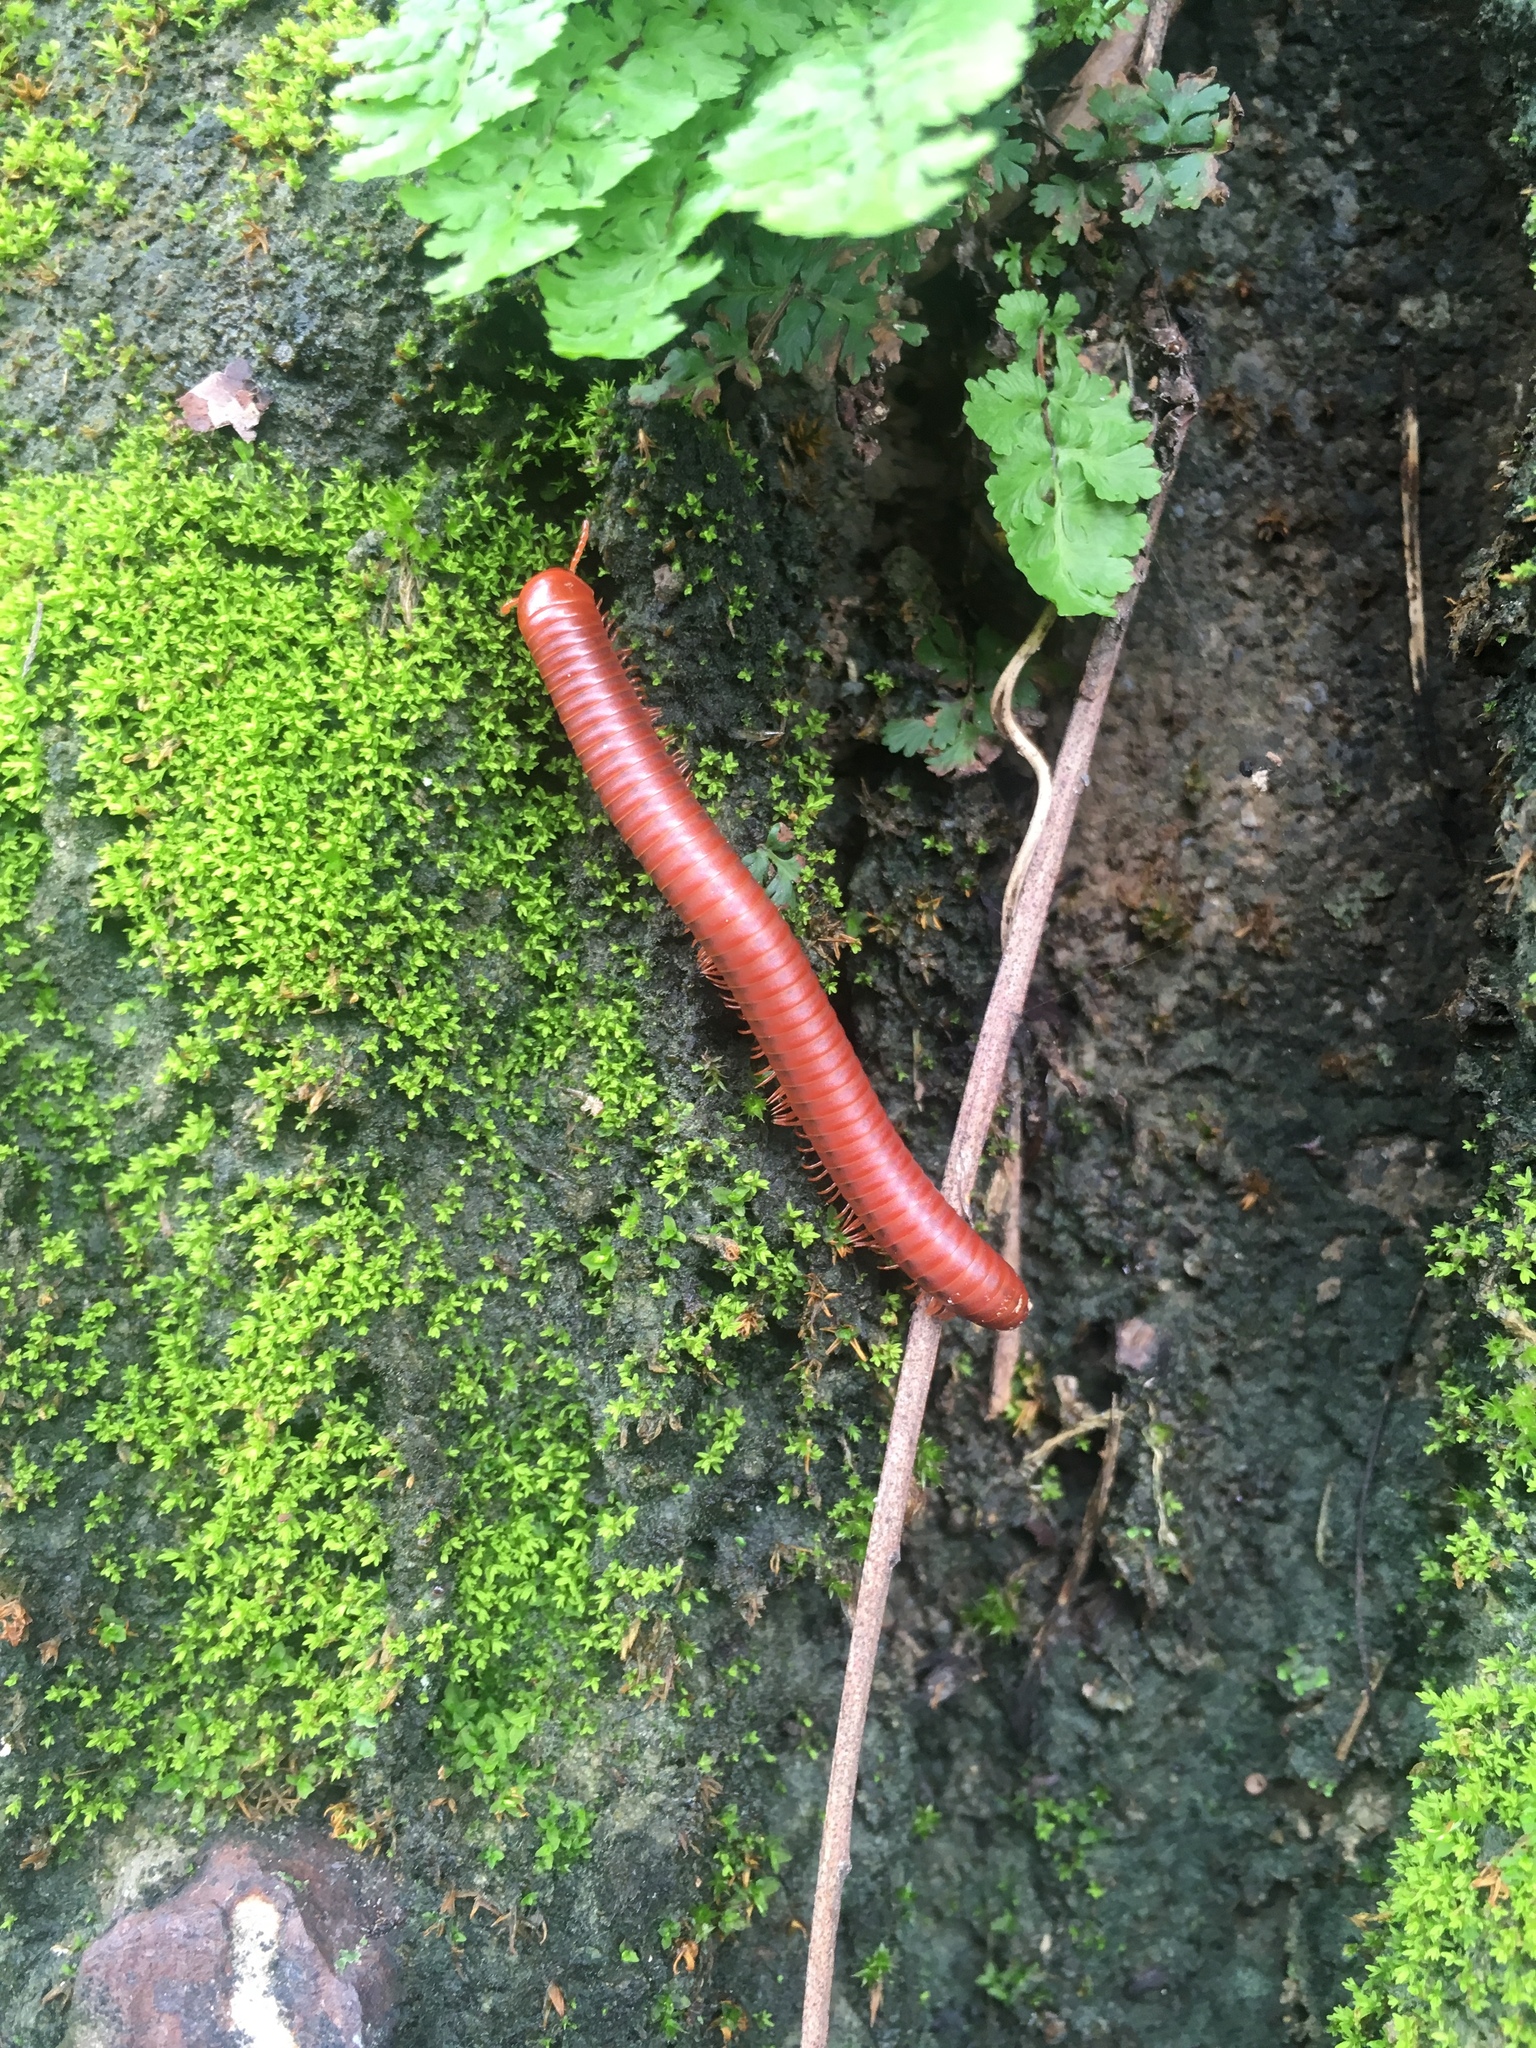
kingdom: Animalia
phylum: Arthropoda
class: Diplopoda
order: Spirobolida
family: Pachybolidae
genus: Trigoniulus
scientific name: Trigoniulus corallinus
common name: Millipede
